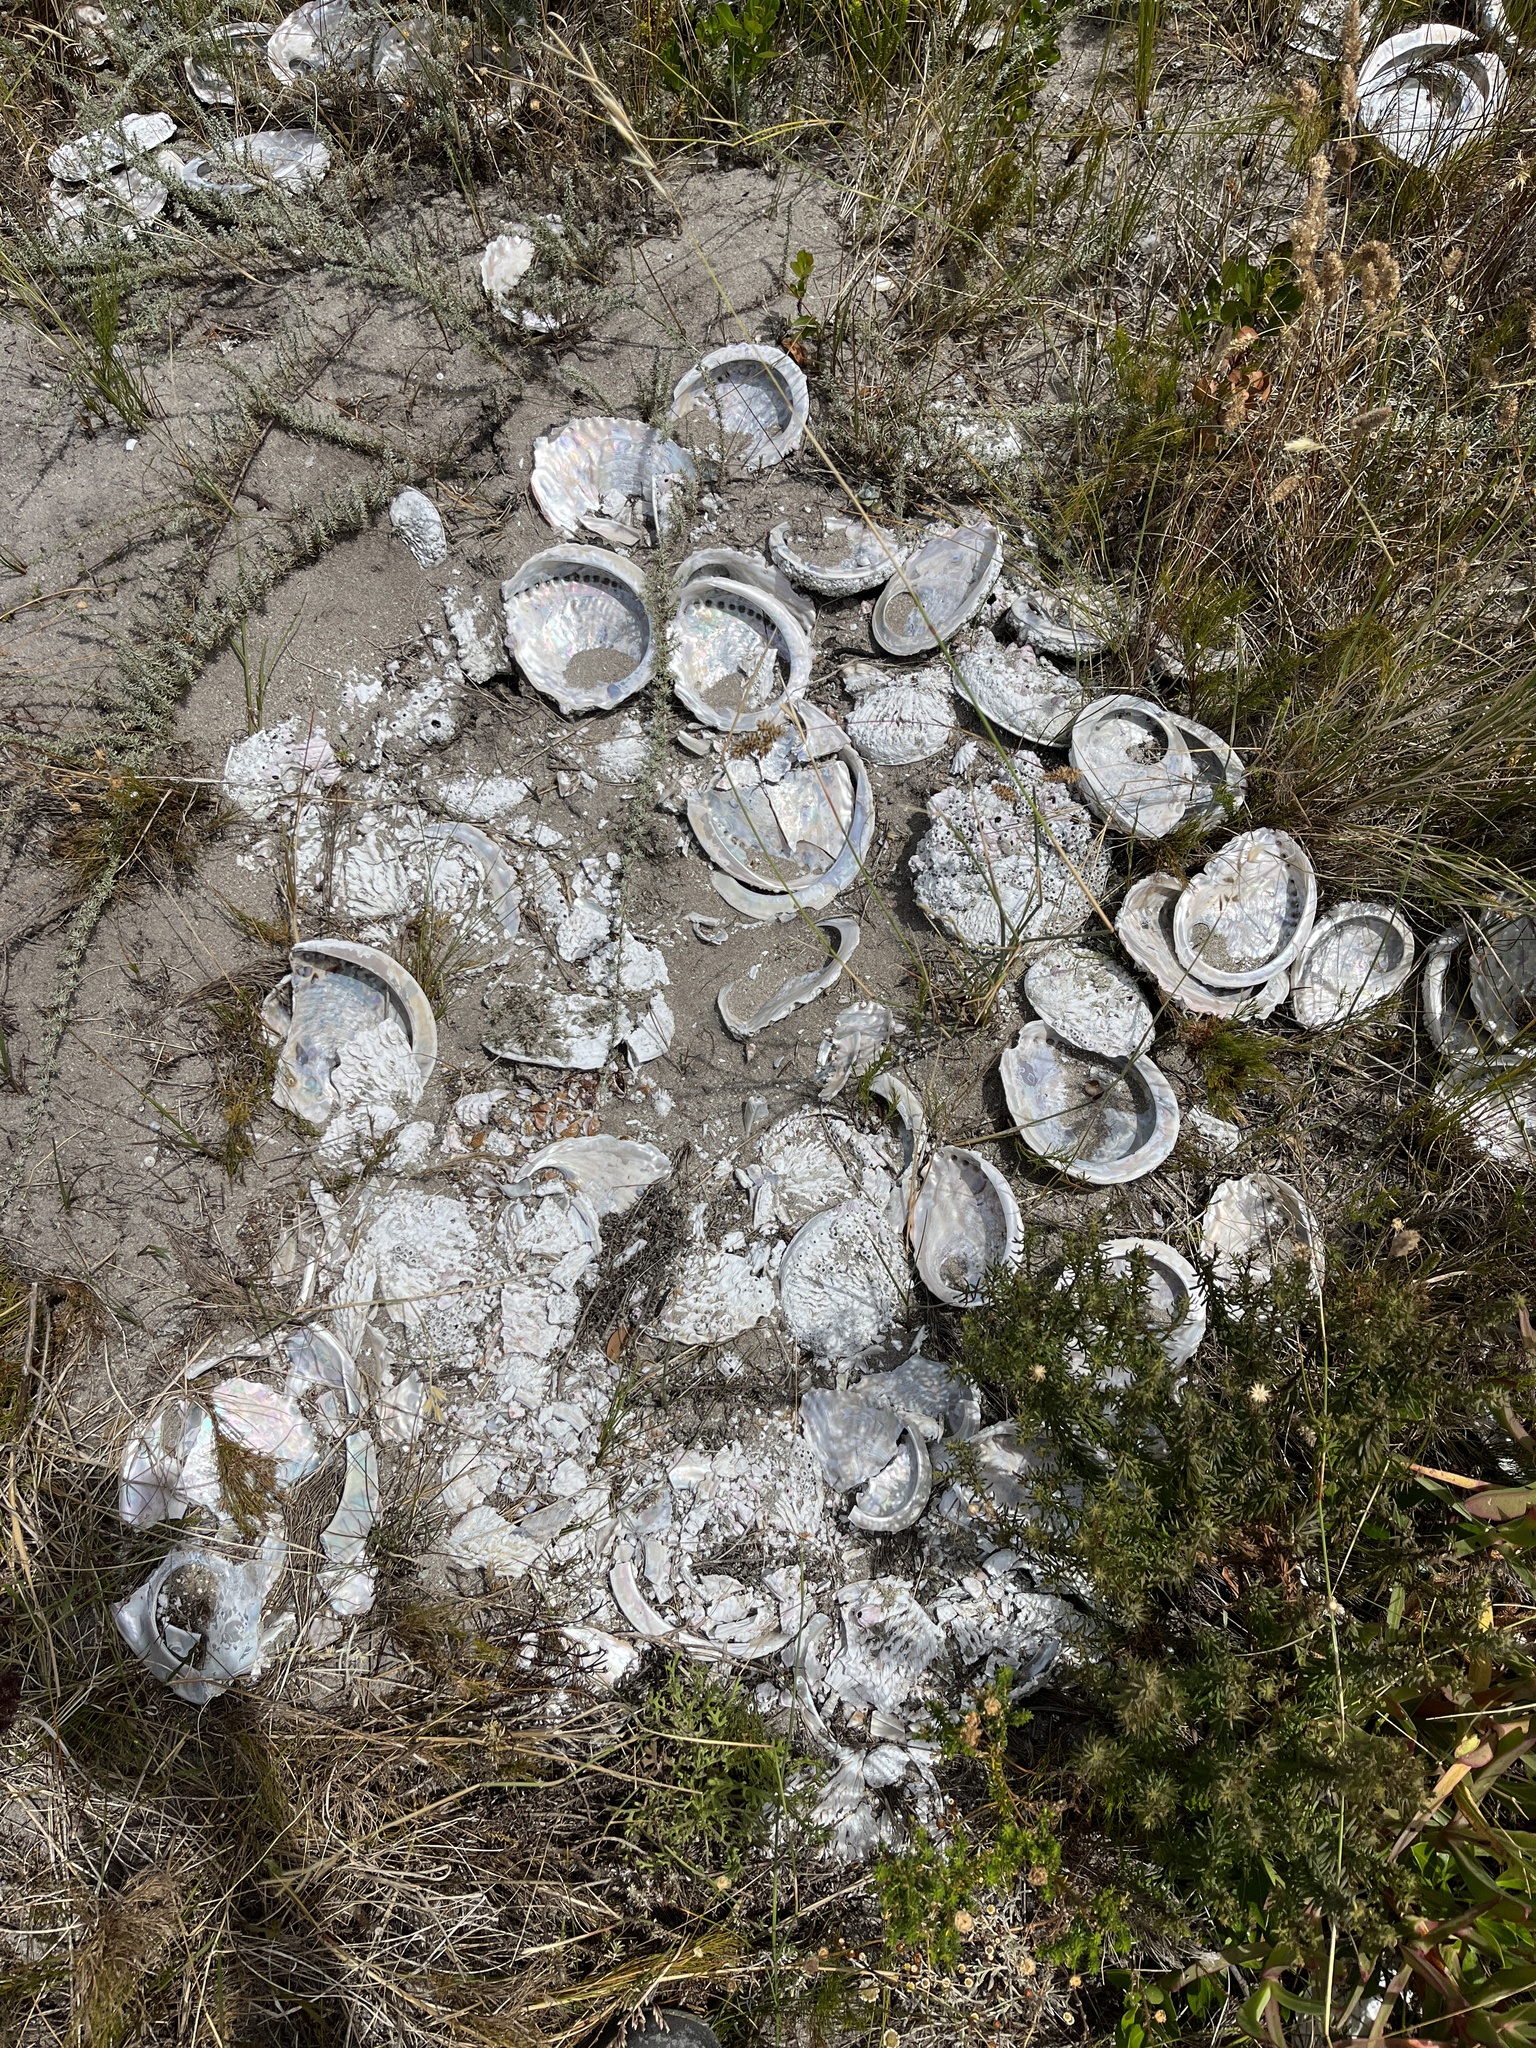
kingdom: Animalia
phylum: Mollusca
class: Gastropoda
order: Lepetellida
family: Haliotidae
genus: Haliotis
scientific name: Haliotis midae
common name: Perlemoen
